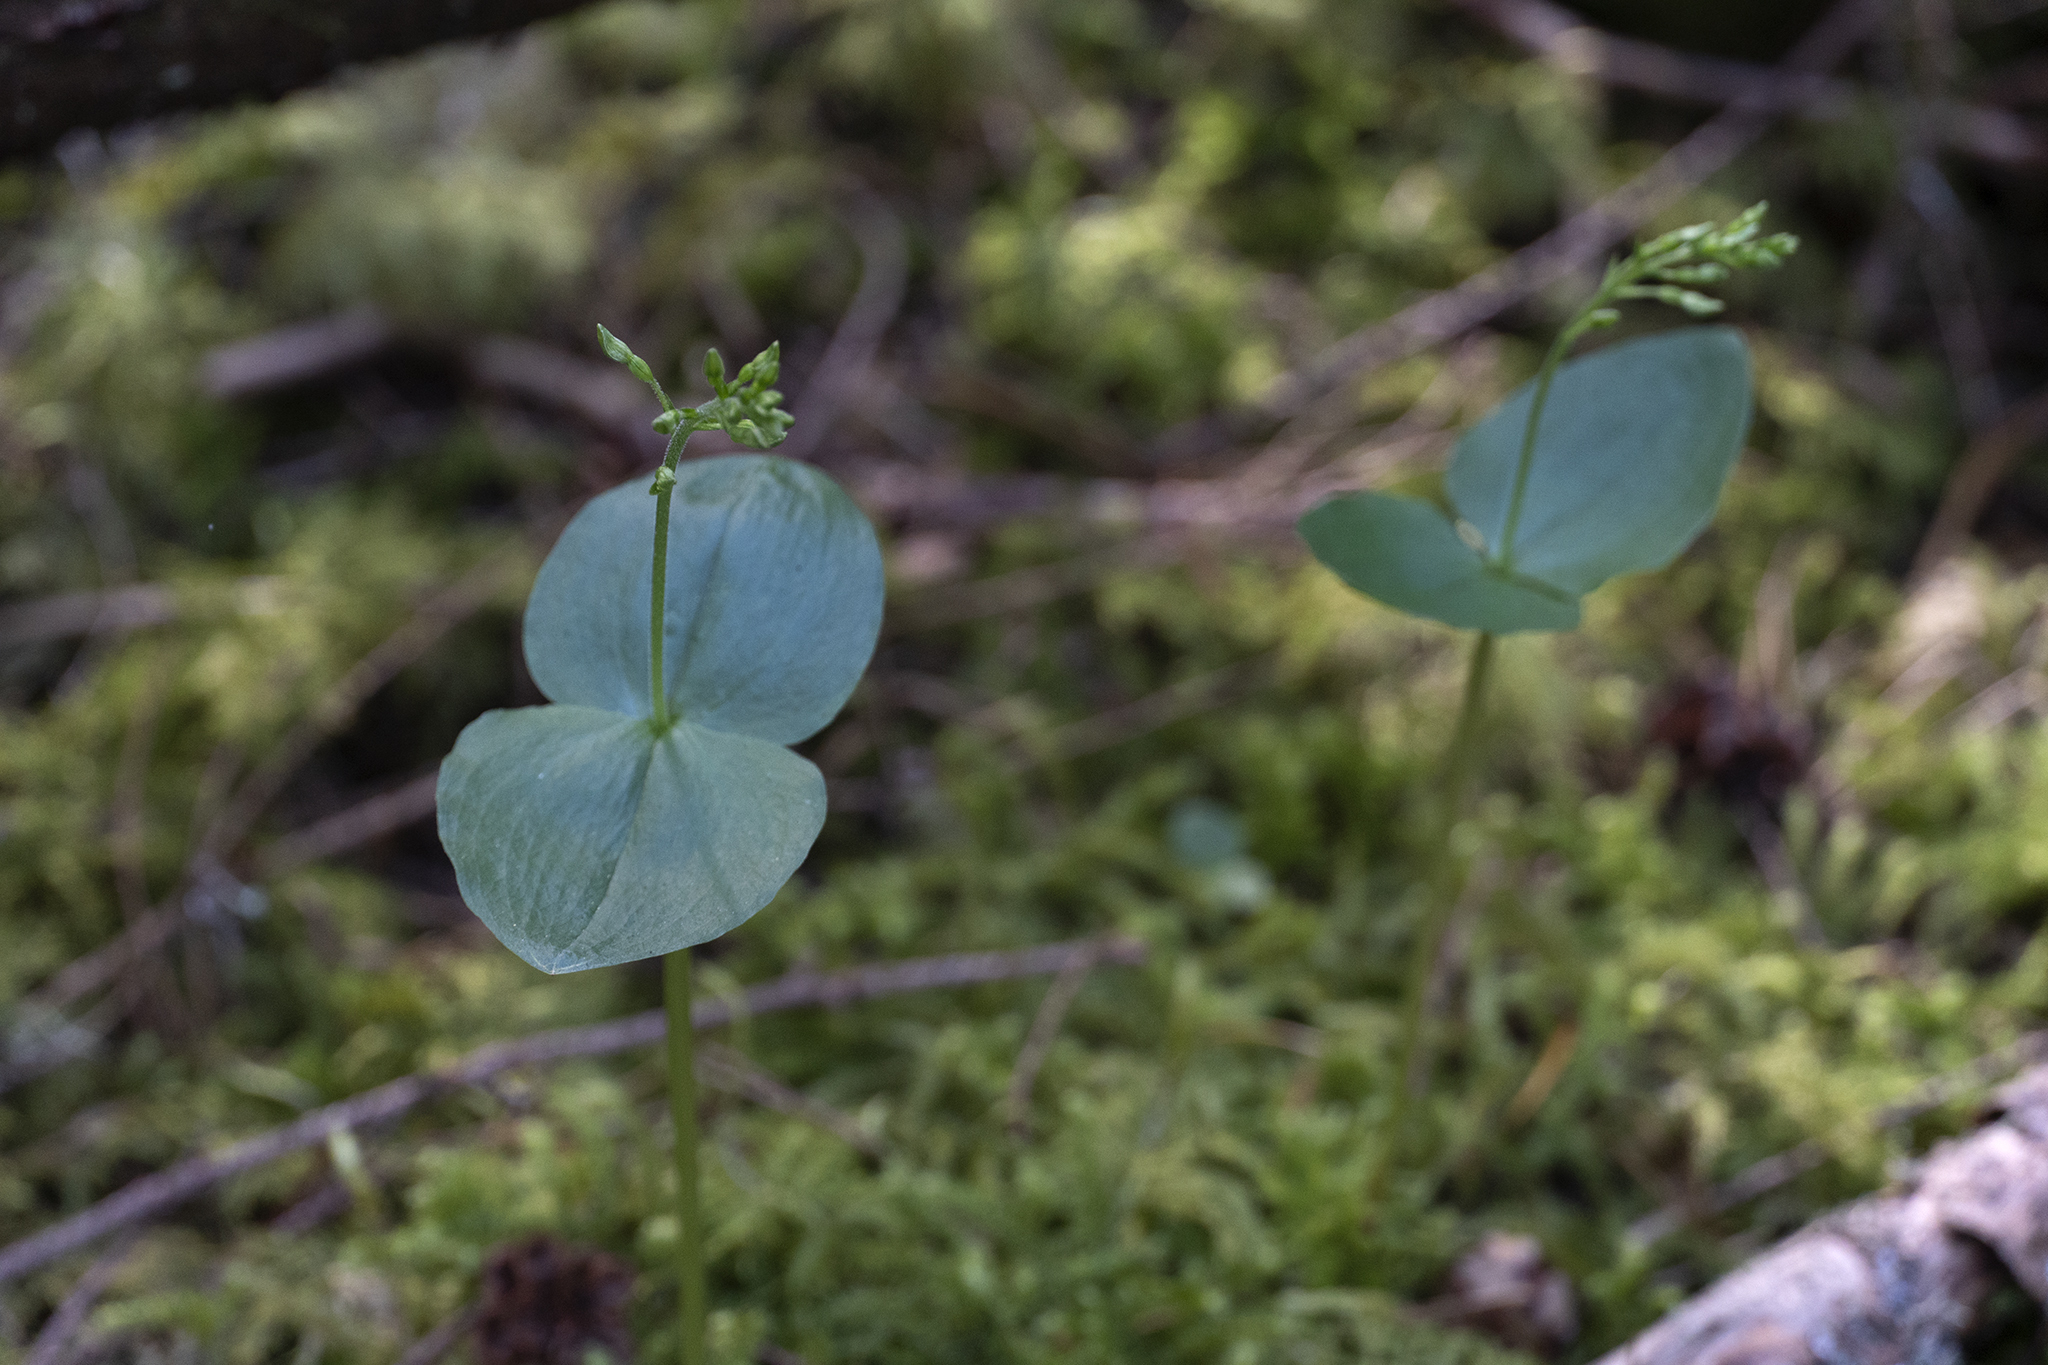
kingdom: Plantae
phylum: Tracheophyta
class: Liliopsida
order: Asparagales
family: Orchidaceae
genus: Neottia
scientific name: Neottia banksiana
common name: Northwestern twayblade
